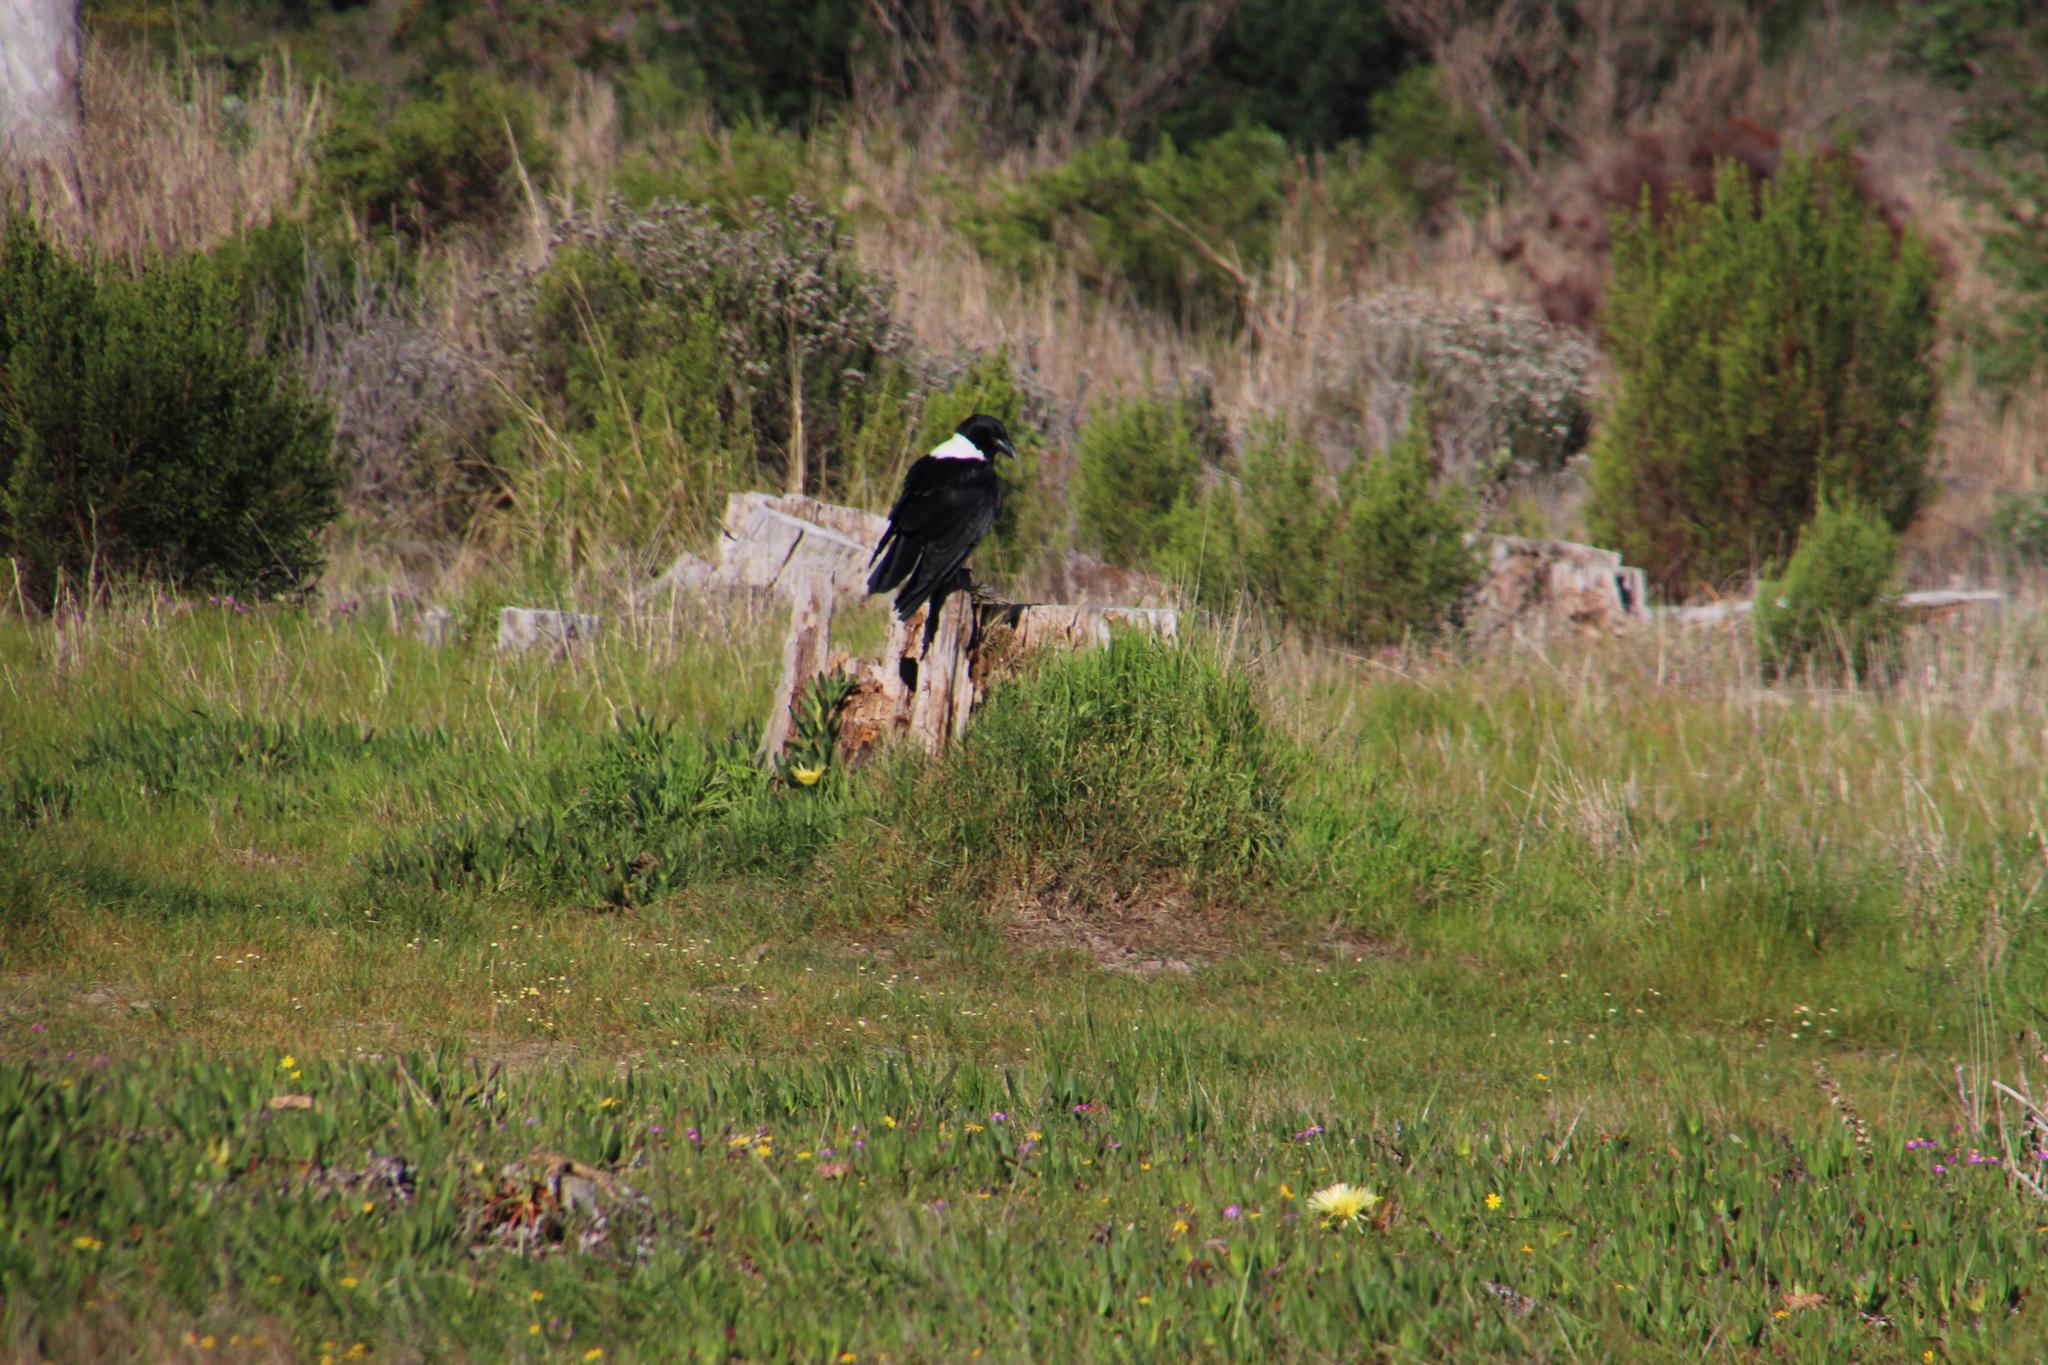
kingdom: Animalia
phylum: Chordata
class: Aves
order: Passeriformes
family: Corvidae
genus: Corvus
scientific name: Corvus albus
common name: Pied crow
